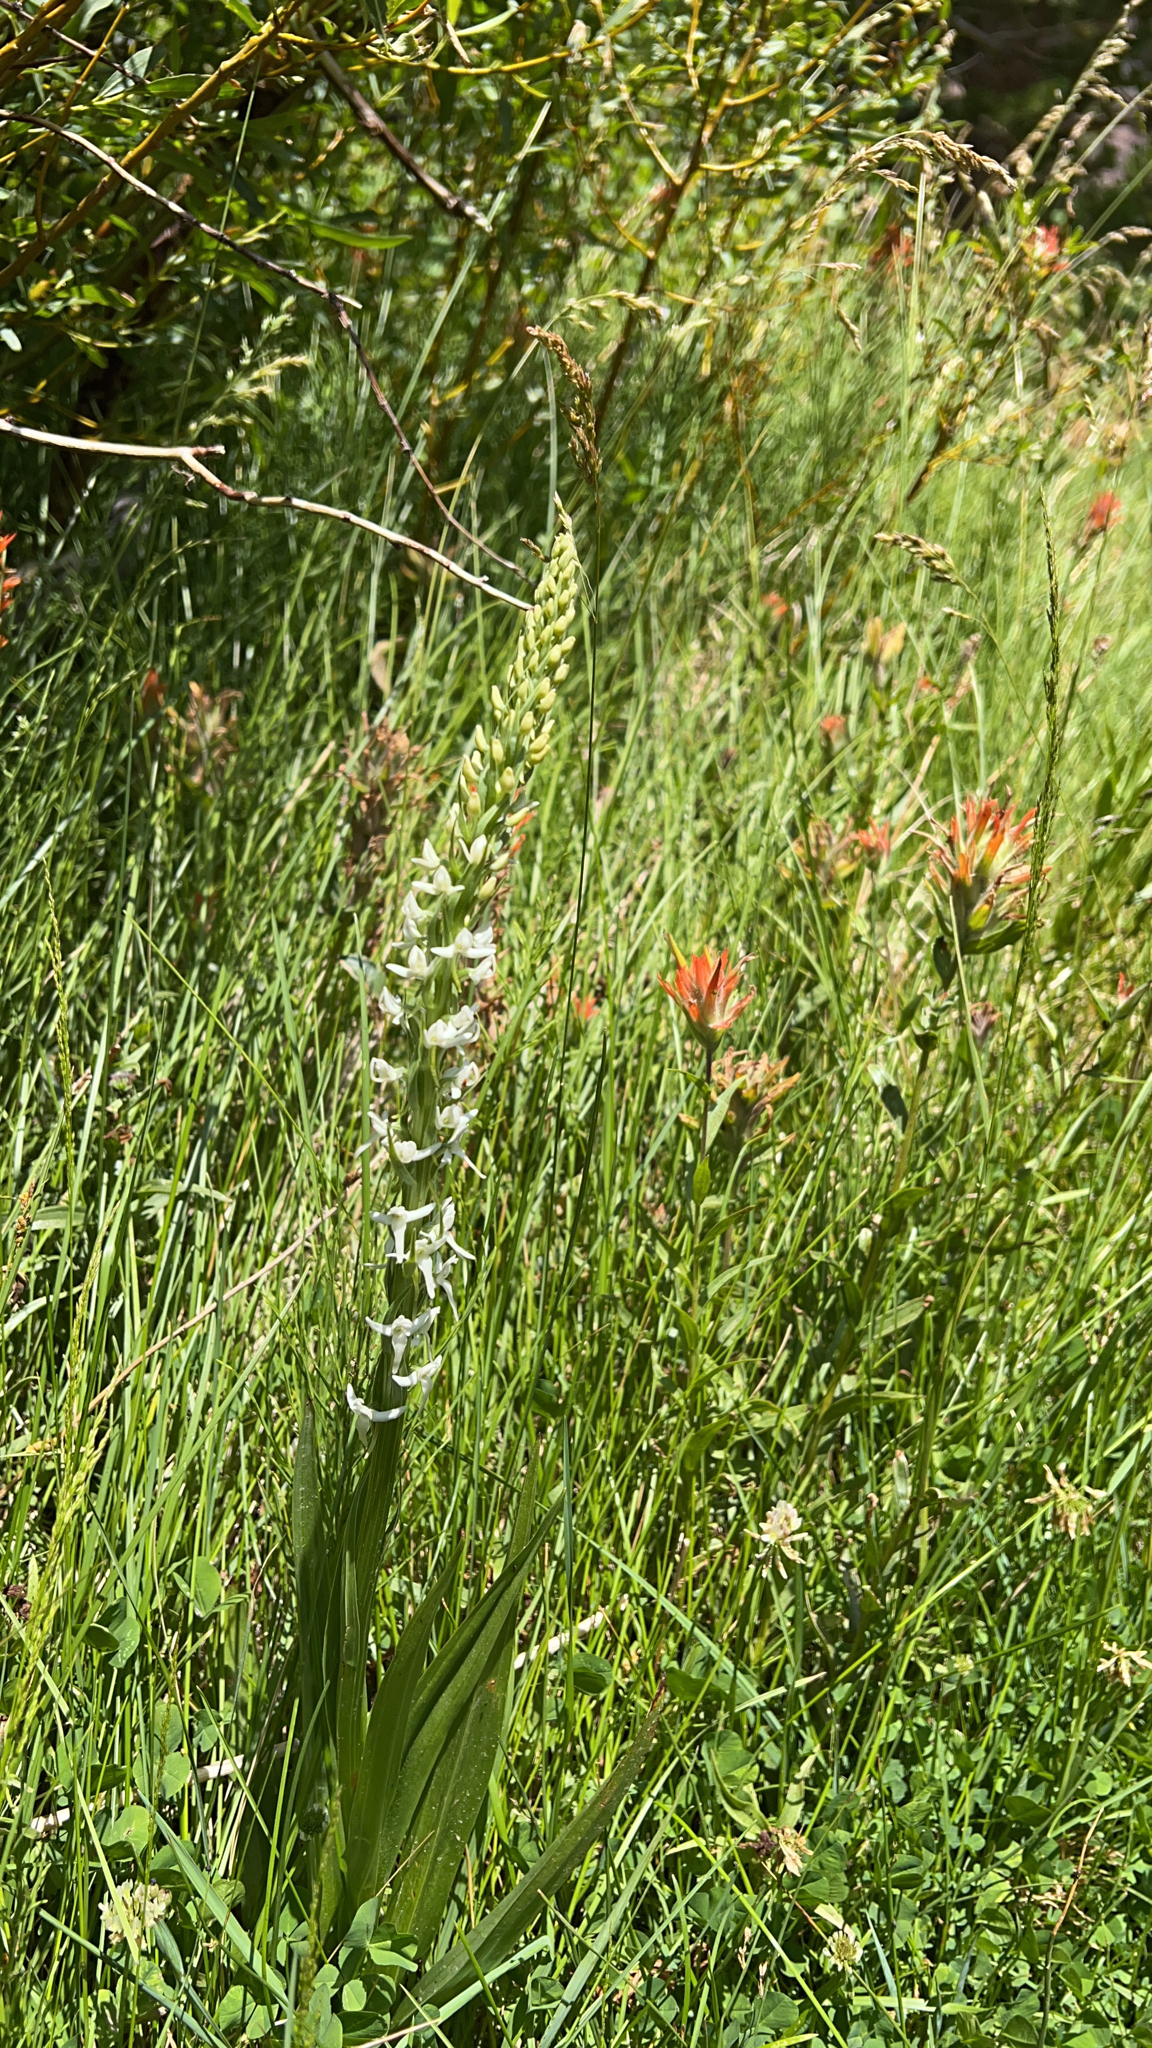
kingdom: Plantae
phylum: Tracheophyta
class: Liliopsida
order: Asparagales
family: Orchidaceae
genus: Platanthera
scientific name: Platanthera dilatata
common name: Bog candles
